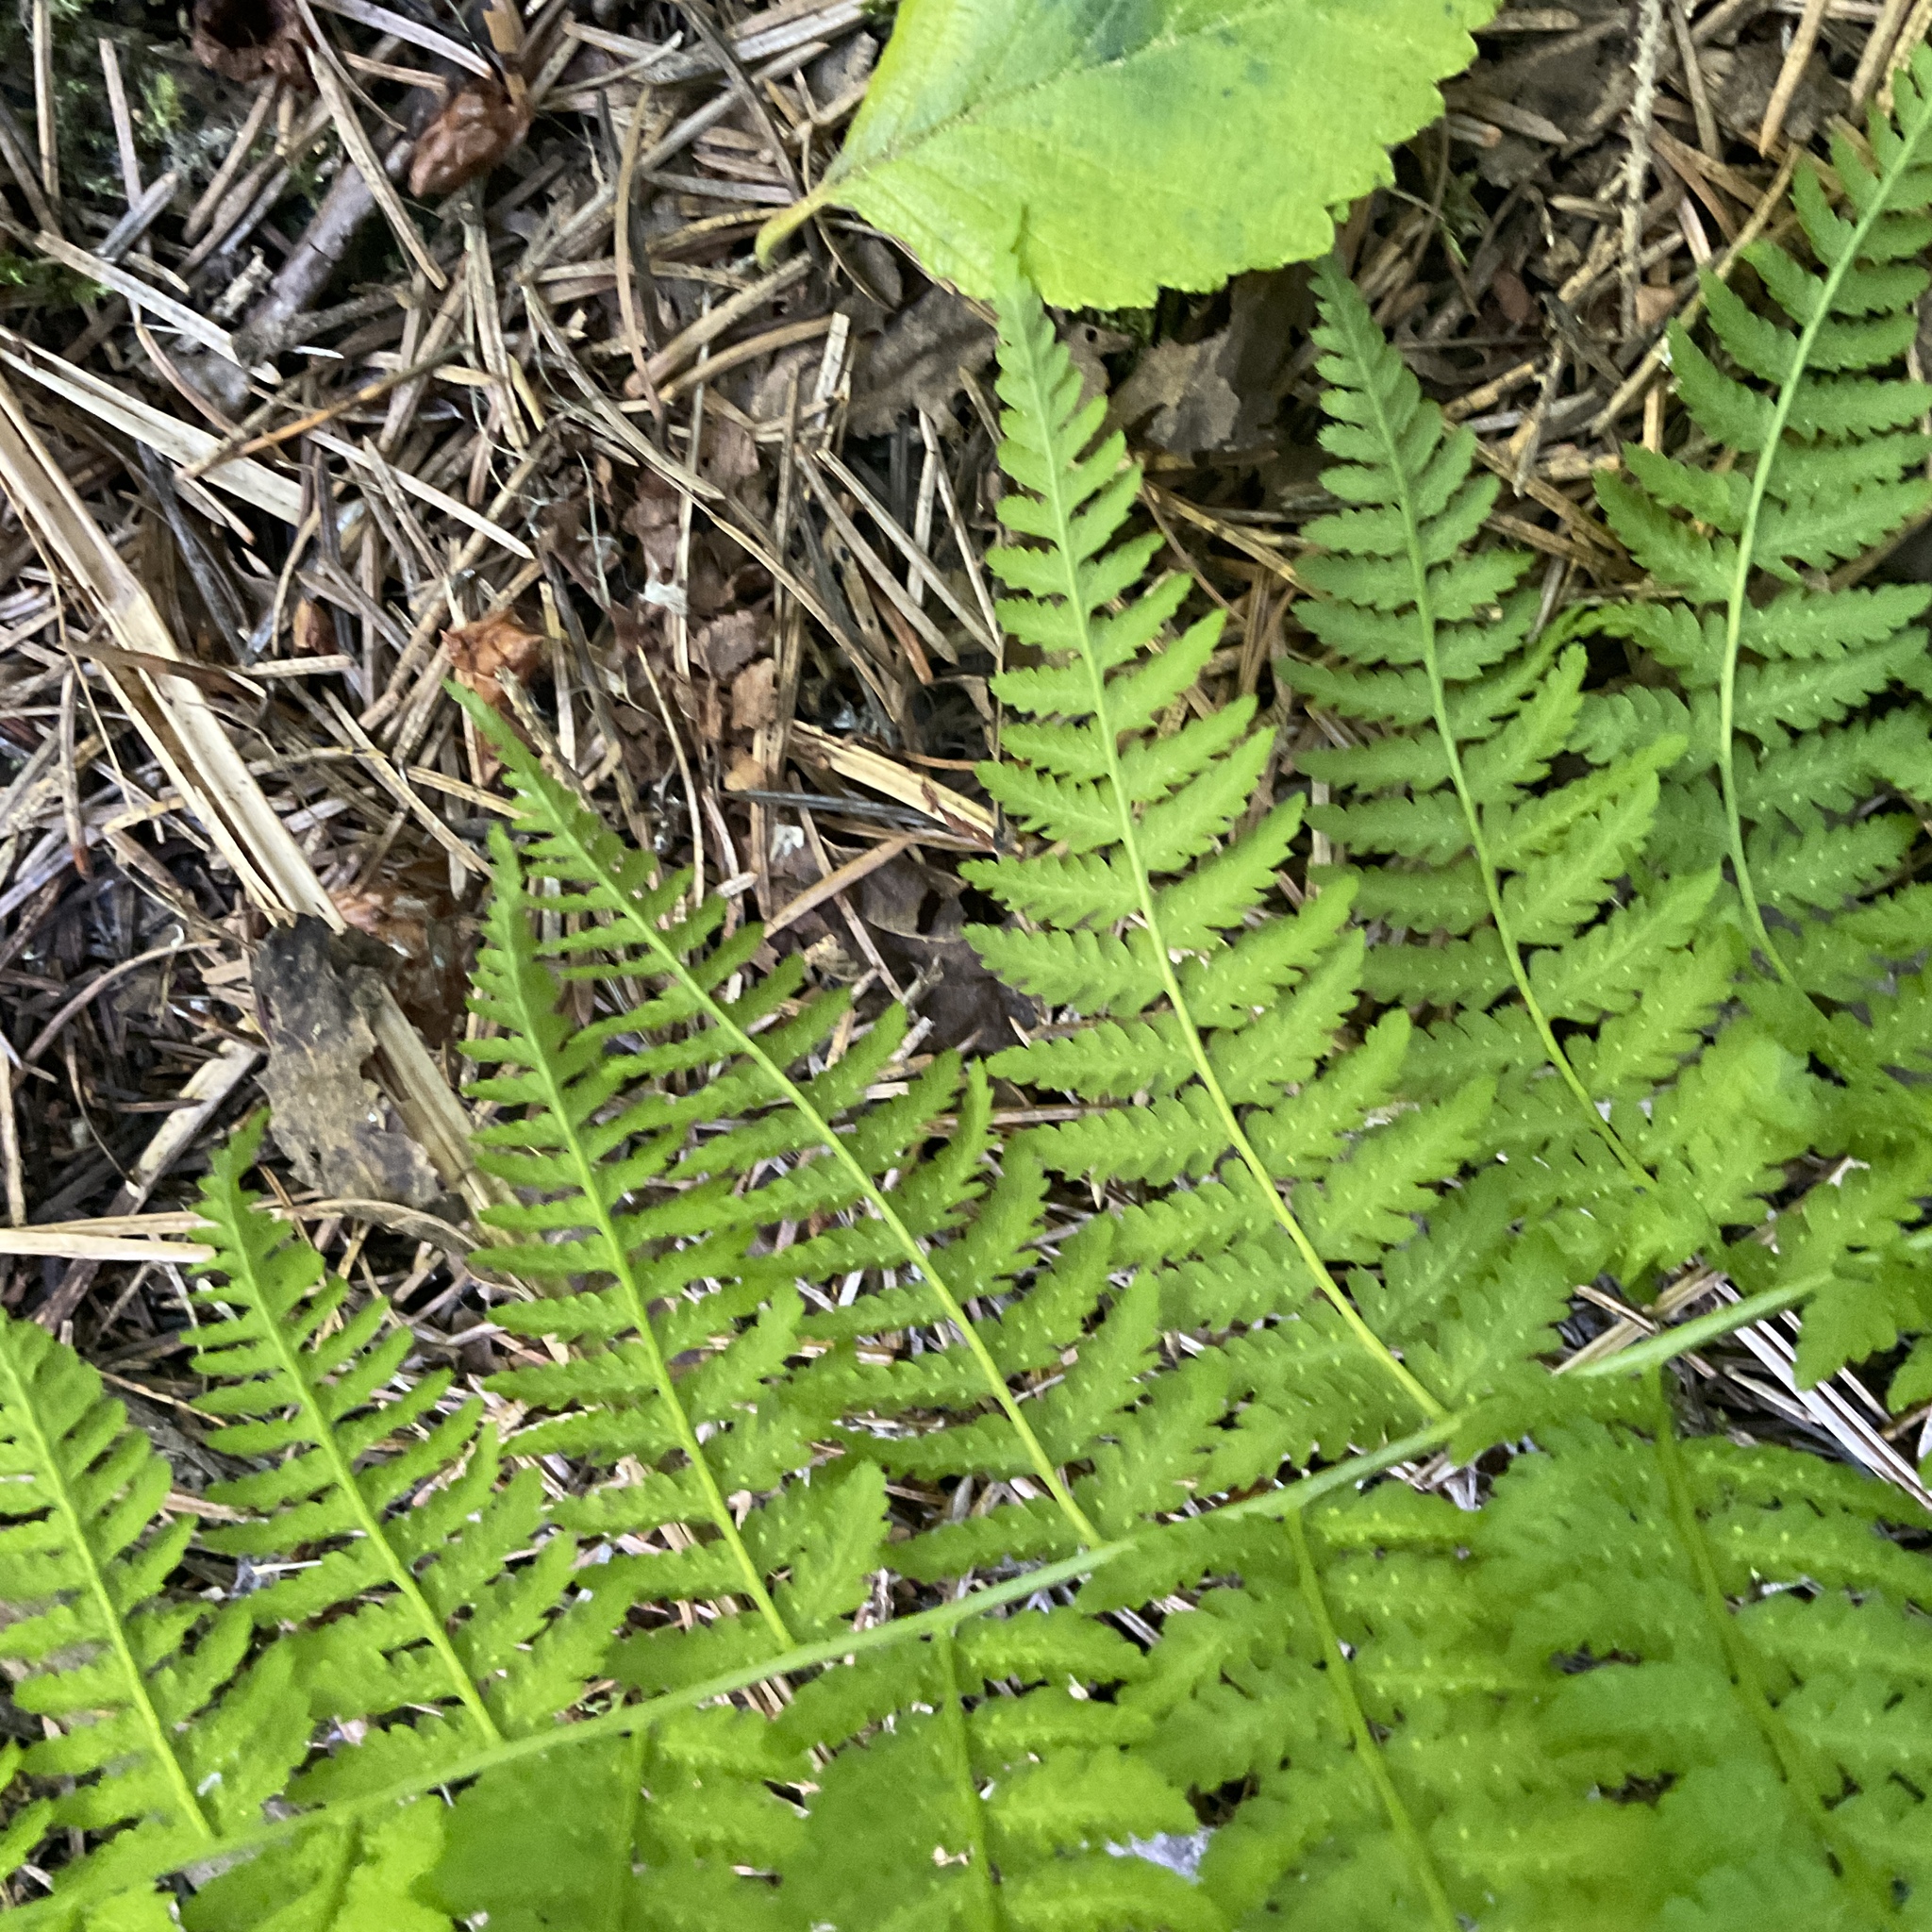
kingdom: Plantae
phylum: Tracheophyta
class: Polypodiopsida
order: Polypodiales
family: Athyriaceae
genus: Athyrium
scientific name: Athyrium cyclosorum
